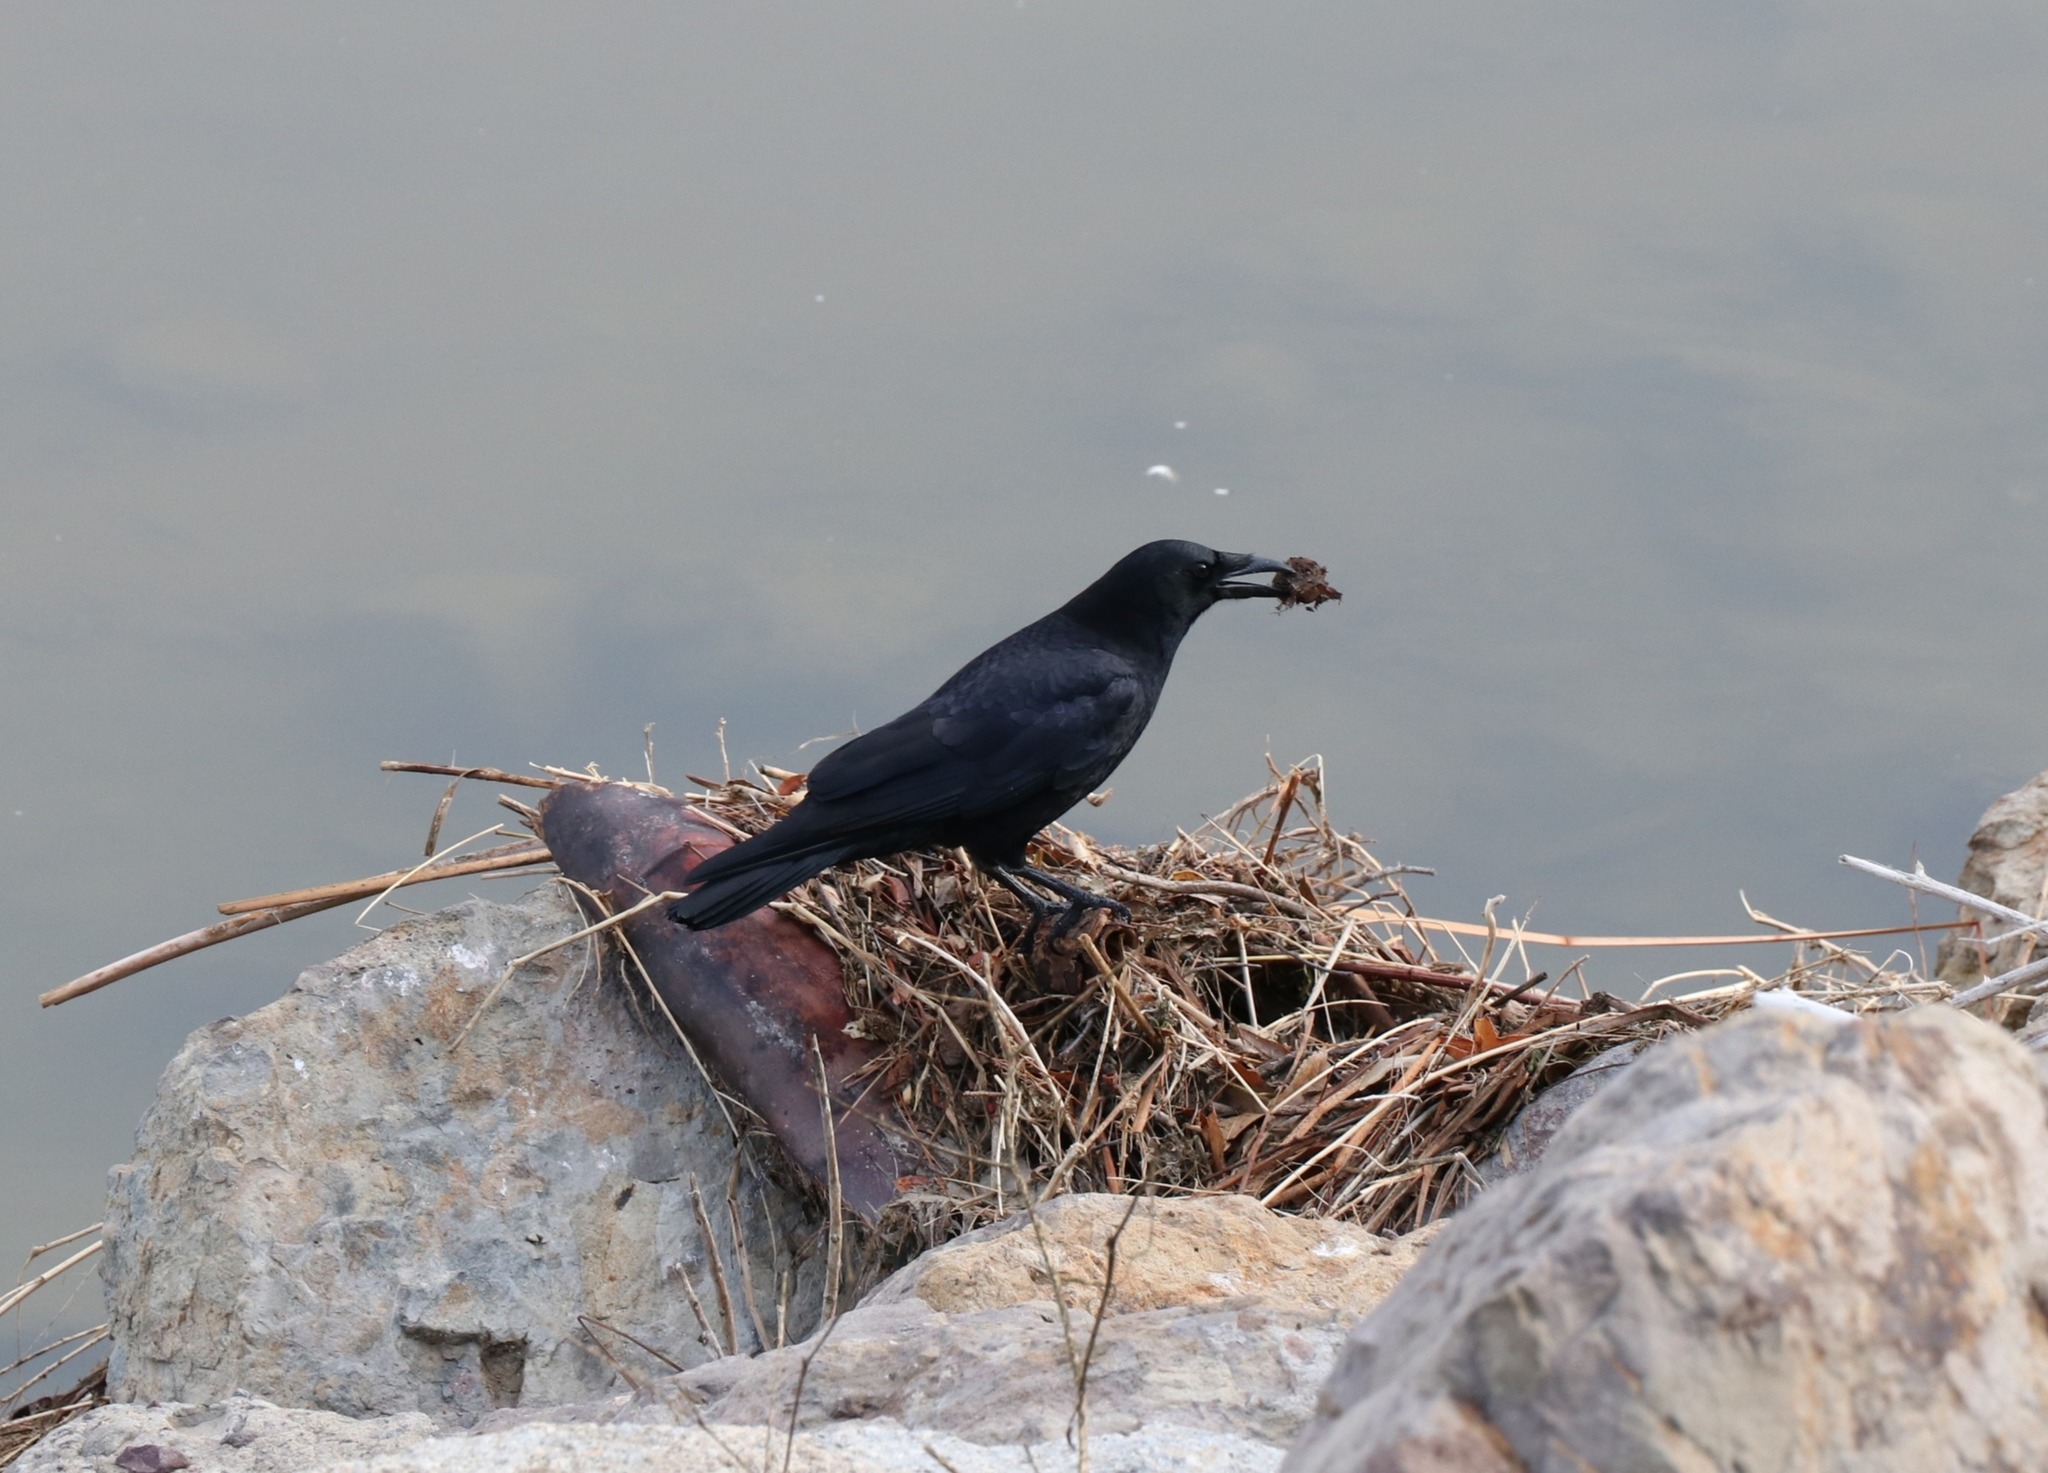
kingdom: Animalia
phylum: Chordata
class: Aves
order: Passeriformes
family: Corvidae
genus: Corvus
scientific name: Corvus brachyrhynchos
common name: American crow
